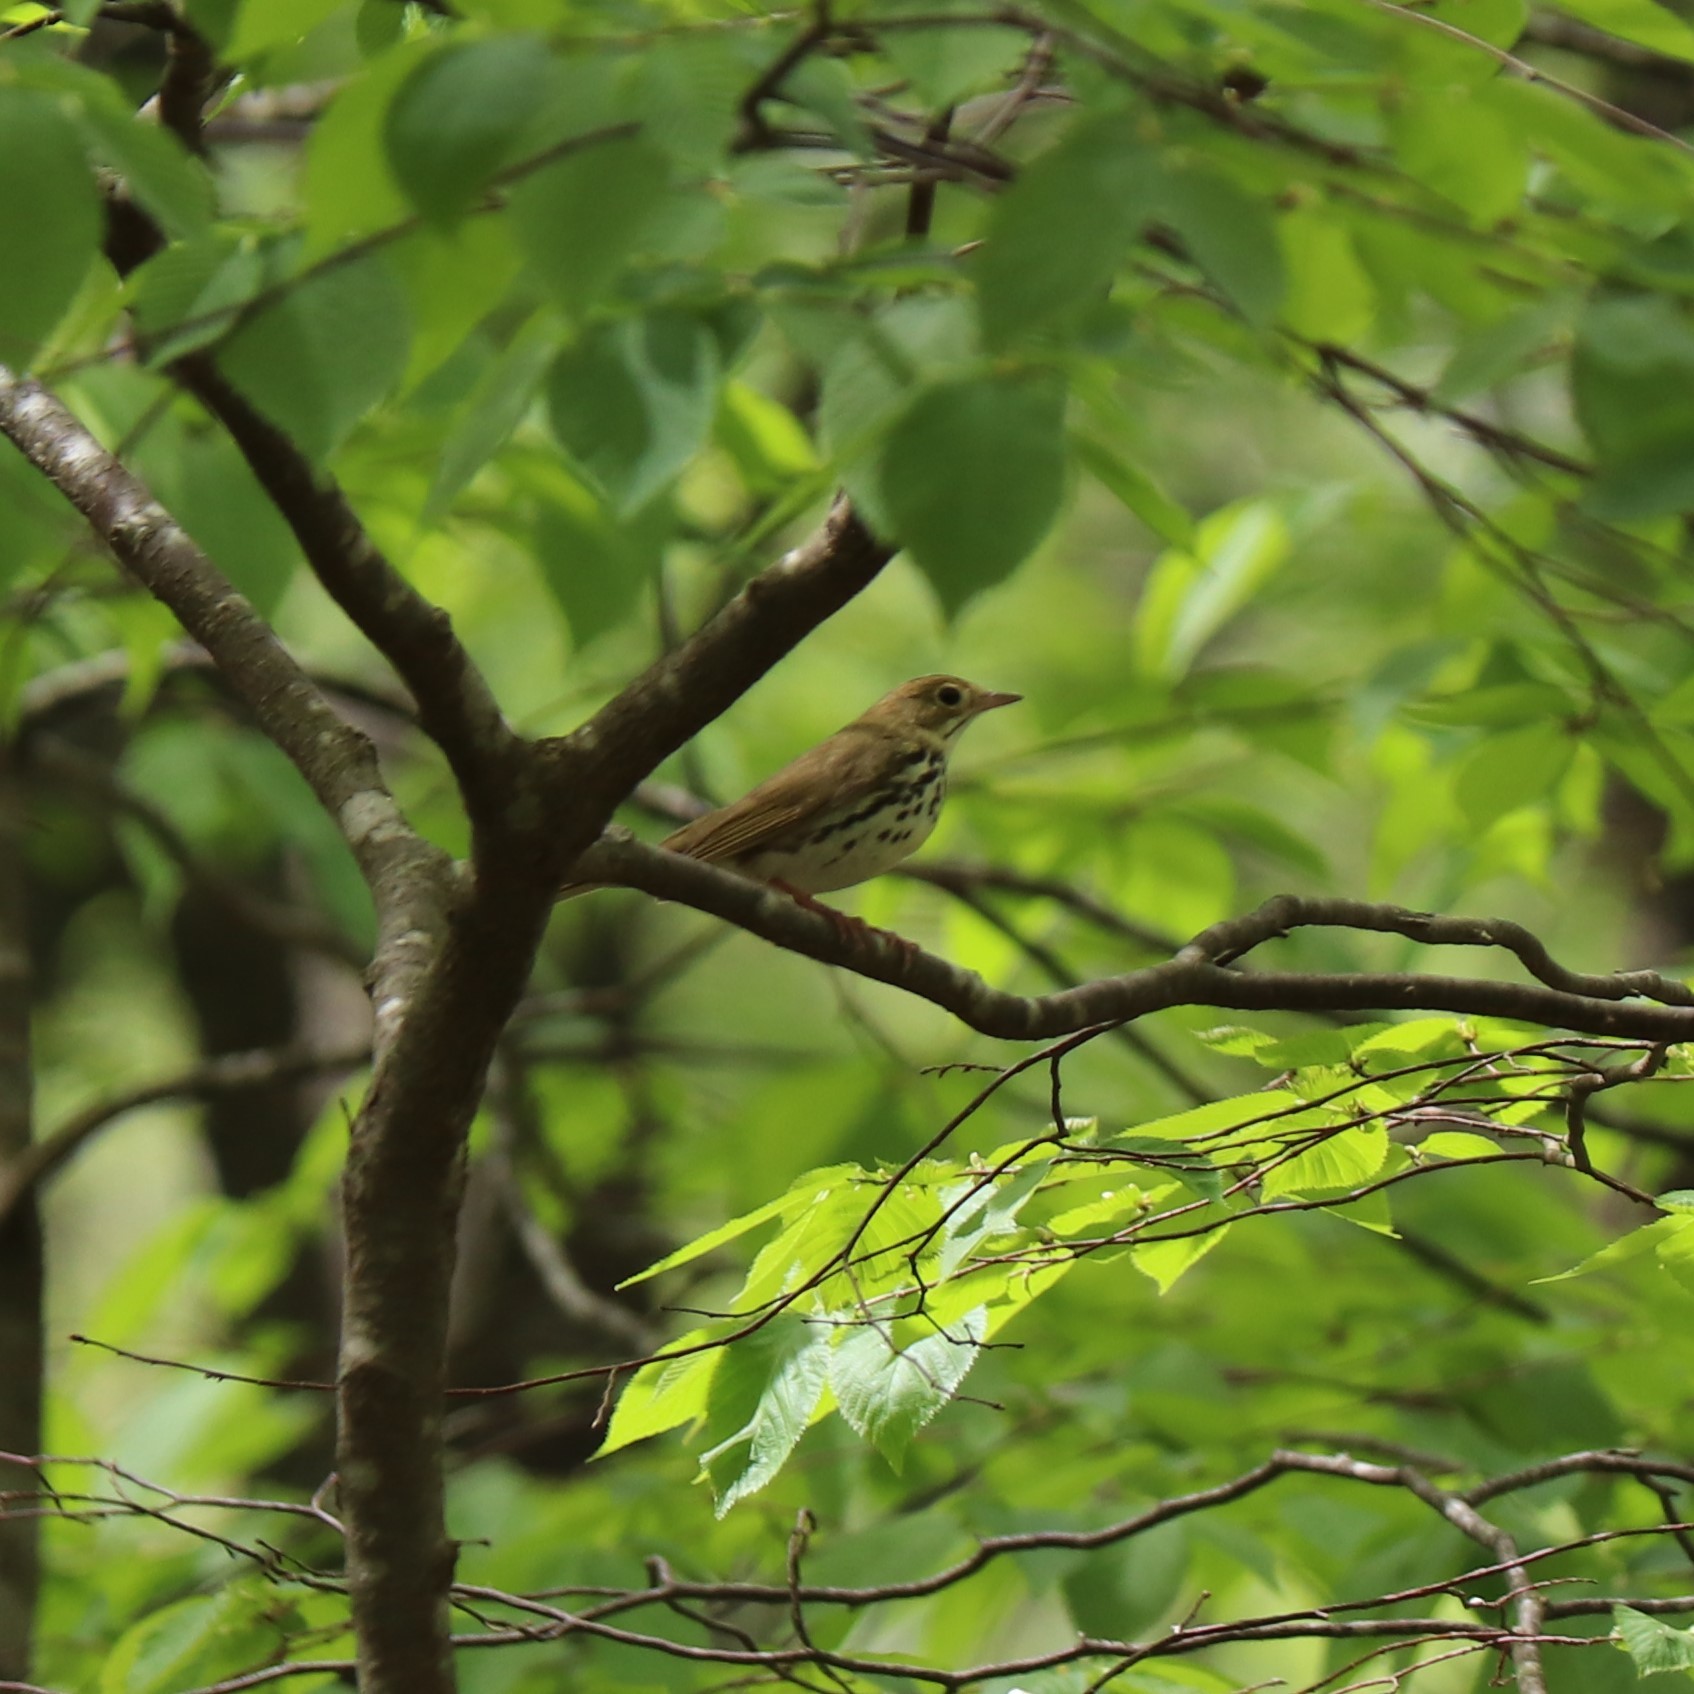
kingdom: Animalia
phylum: Chordata
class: Aves
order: Passeriformes
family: Parulidae
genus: Seiurus
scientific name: Seiurus aurocapilla
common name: Ovenbird
